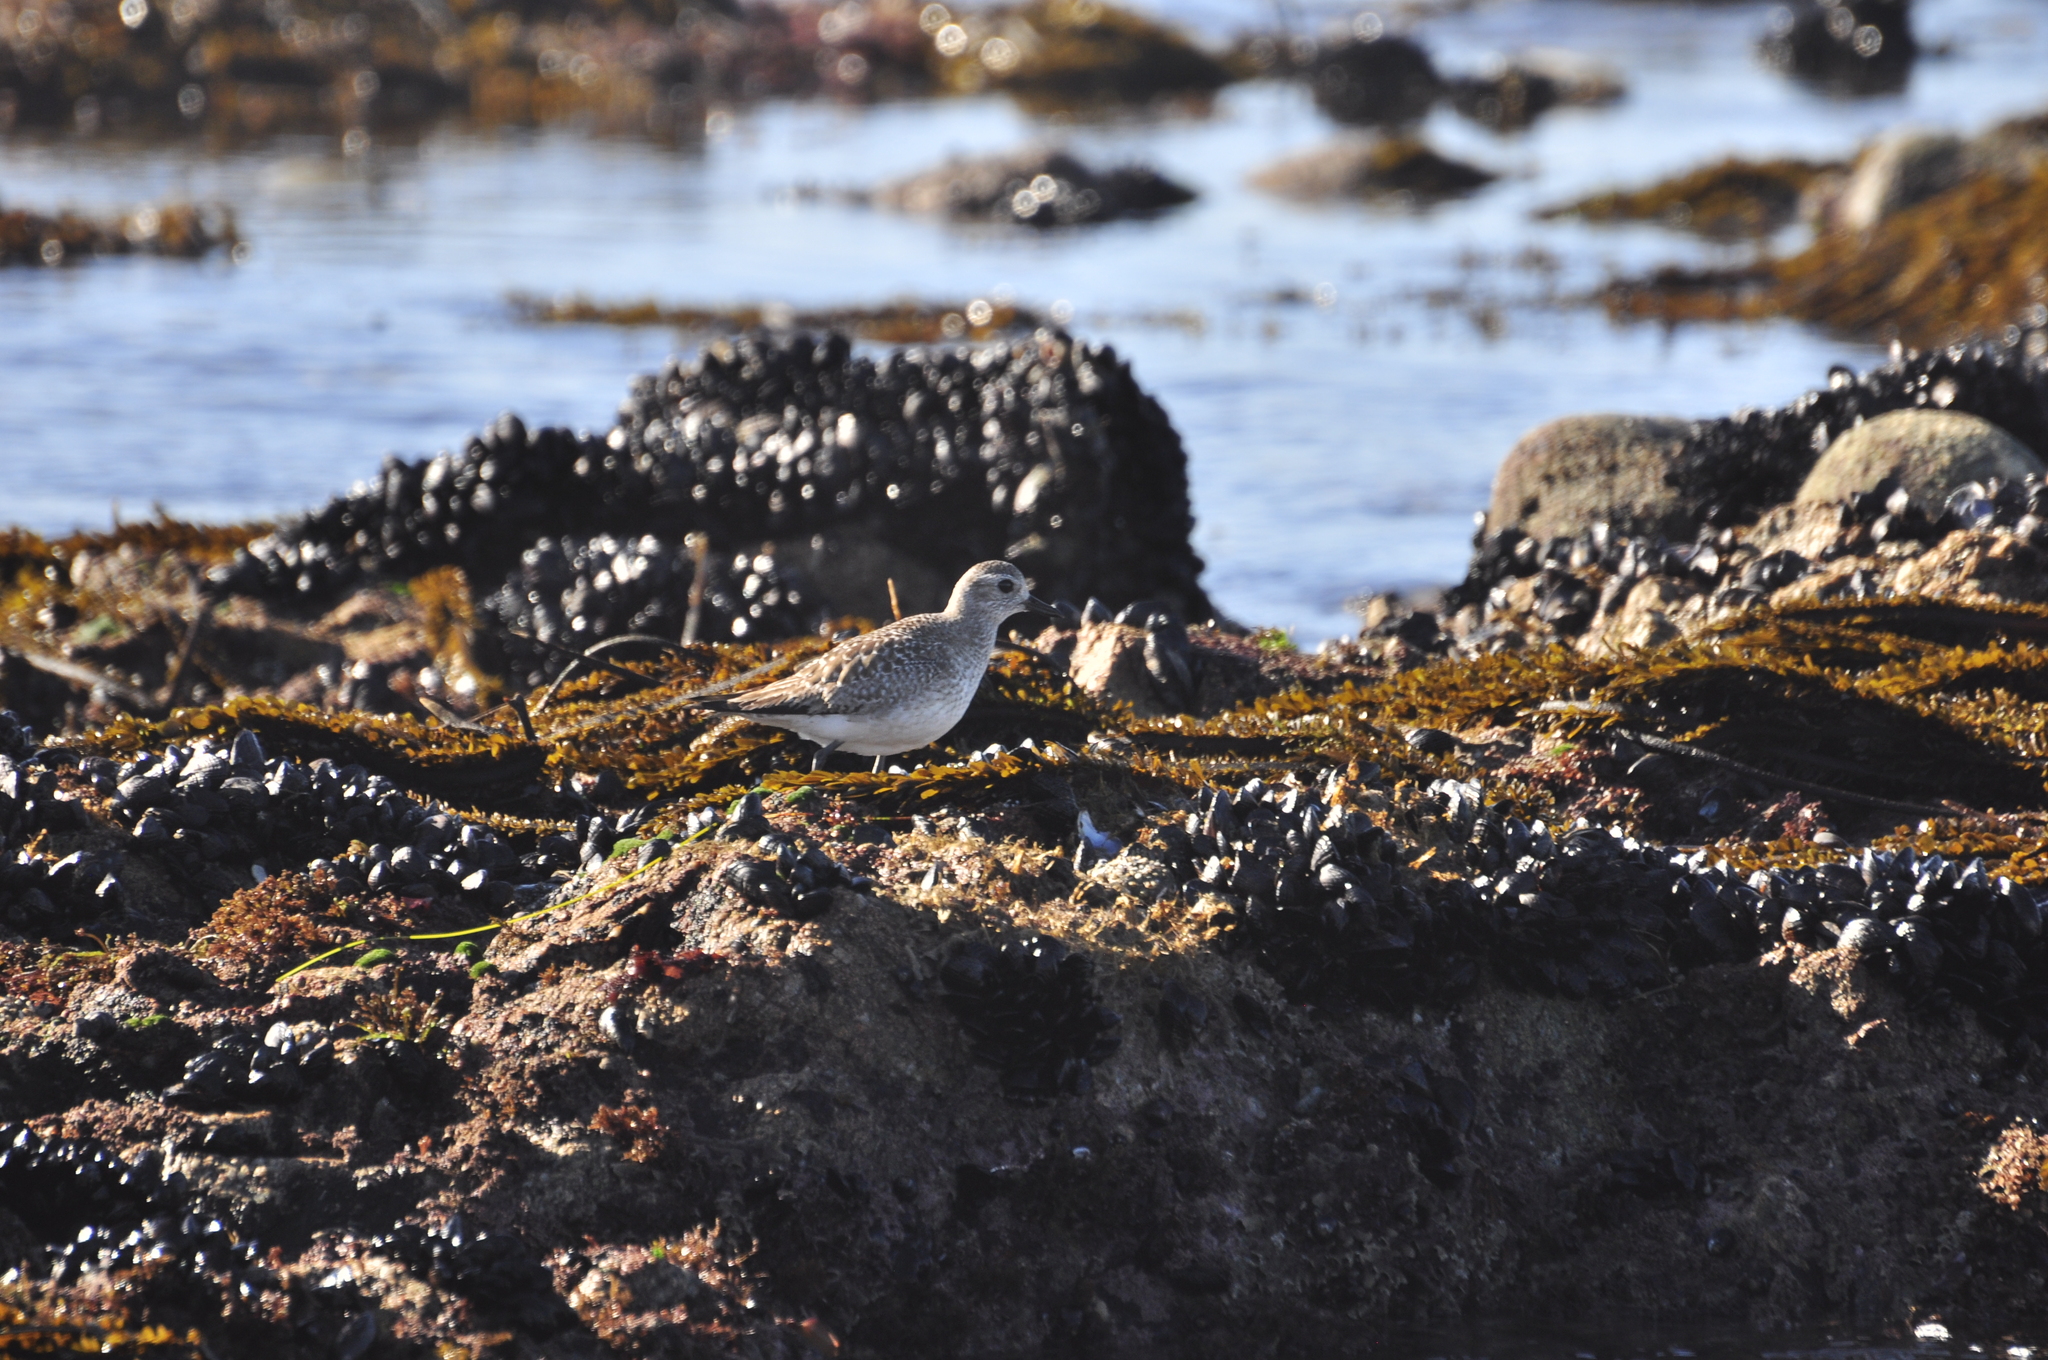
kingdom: Animalia
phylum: Chordata
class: Aves
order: Charadriiformes
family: Charadriidae
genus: Pluvialis
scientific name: Pluvialis squatarola
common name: Grey plover
